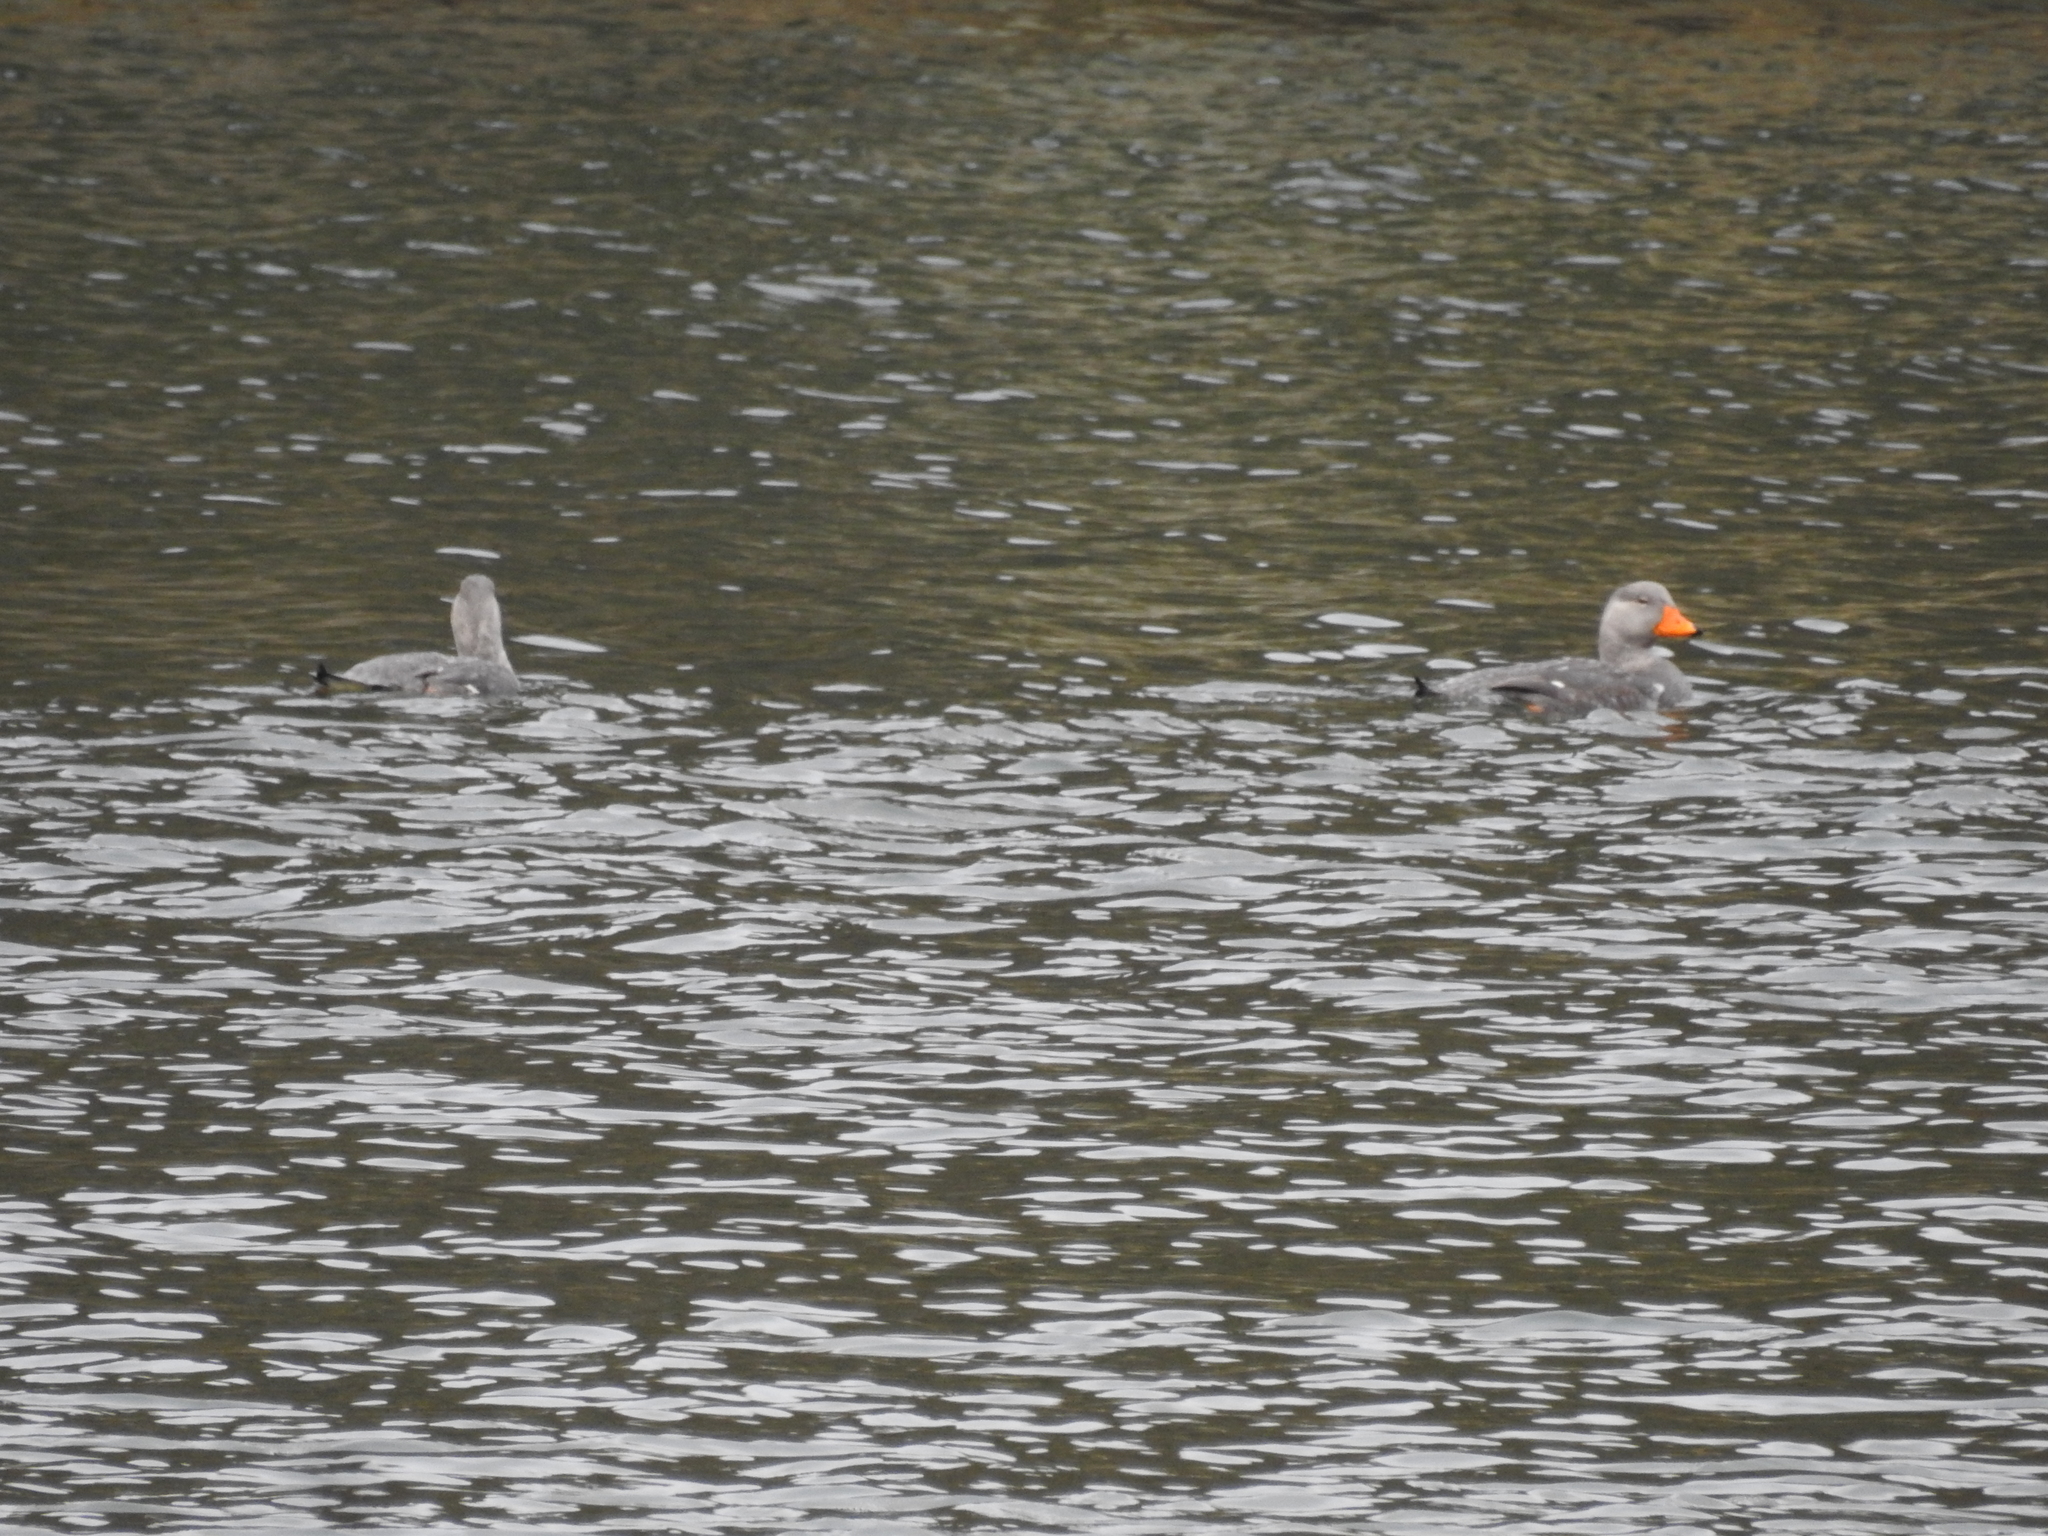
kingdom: Animalia
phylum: Chordata
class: Aves
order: Anseriformes
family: Anatidae
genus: Tachyeres
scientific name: Tachyeres pteneres
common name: Fuegian steamer duck
